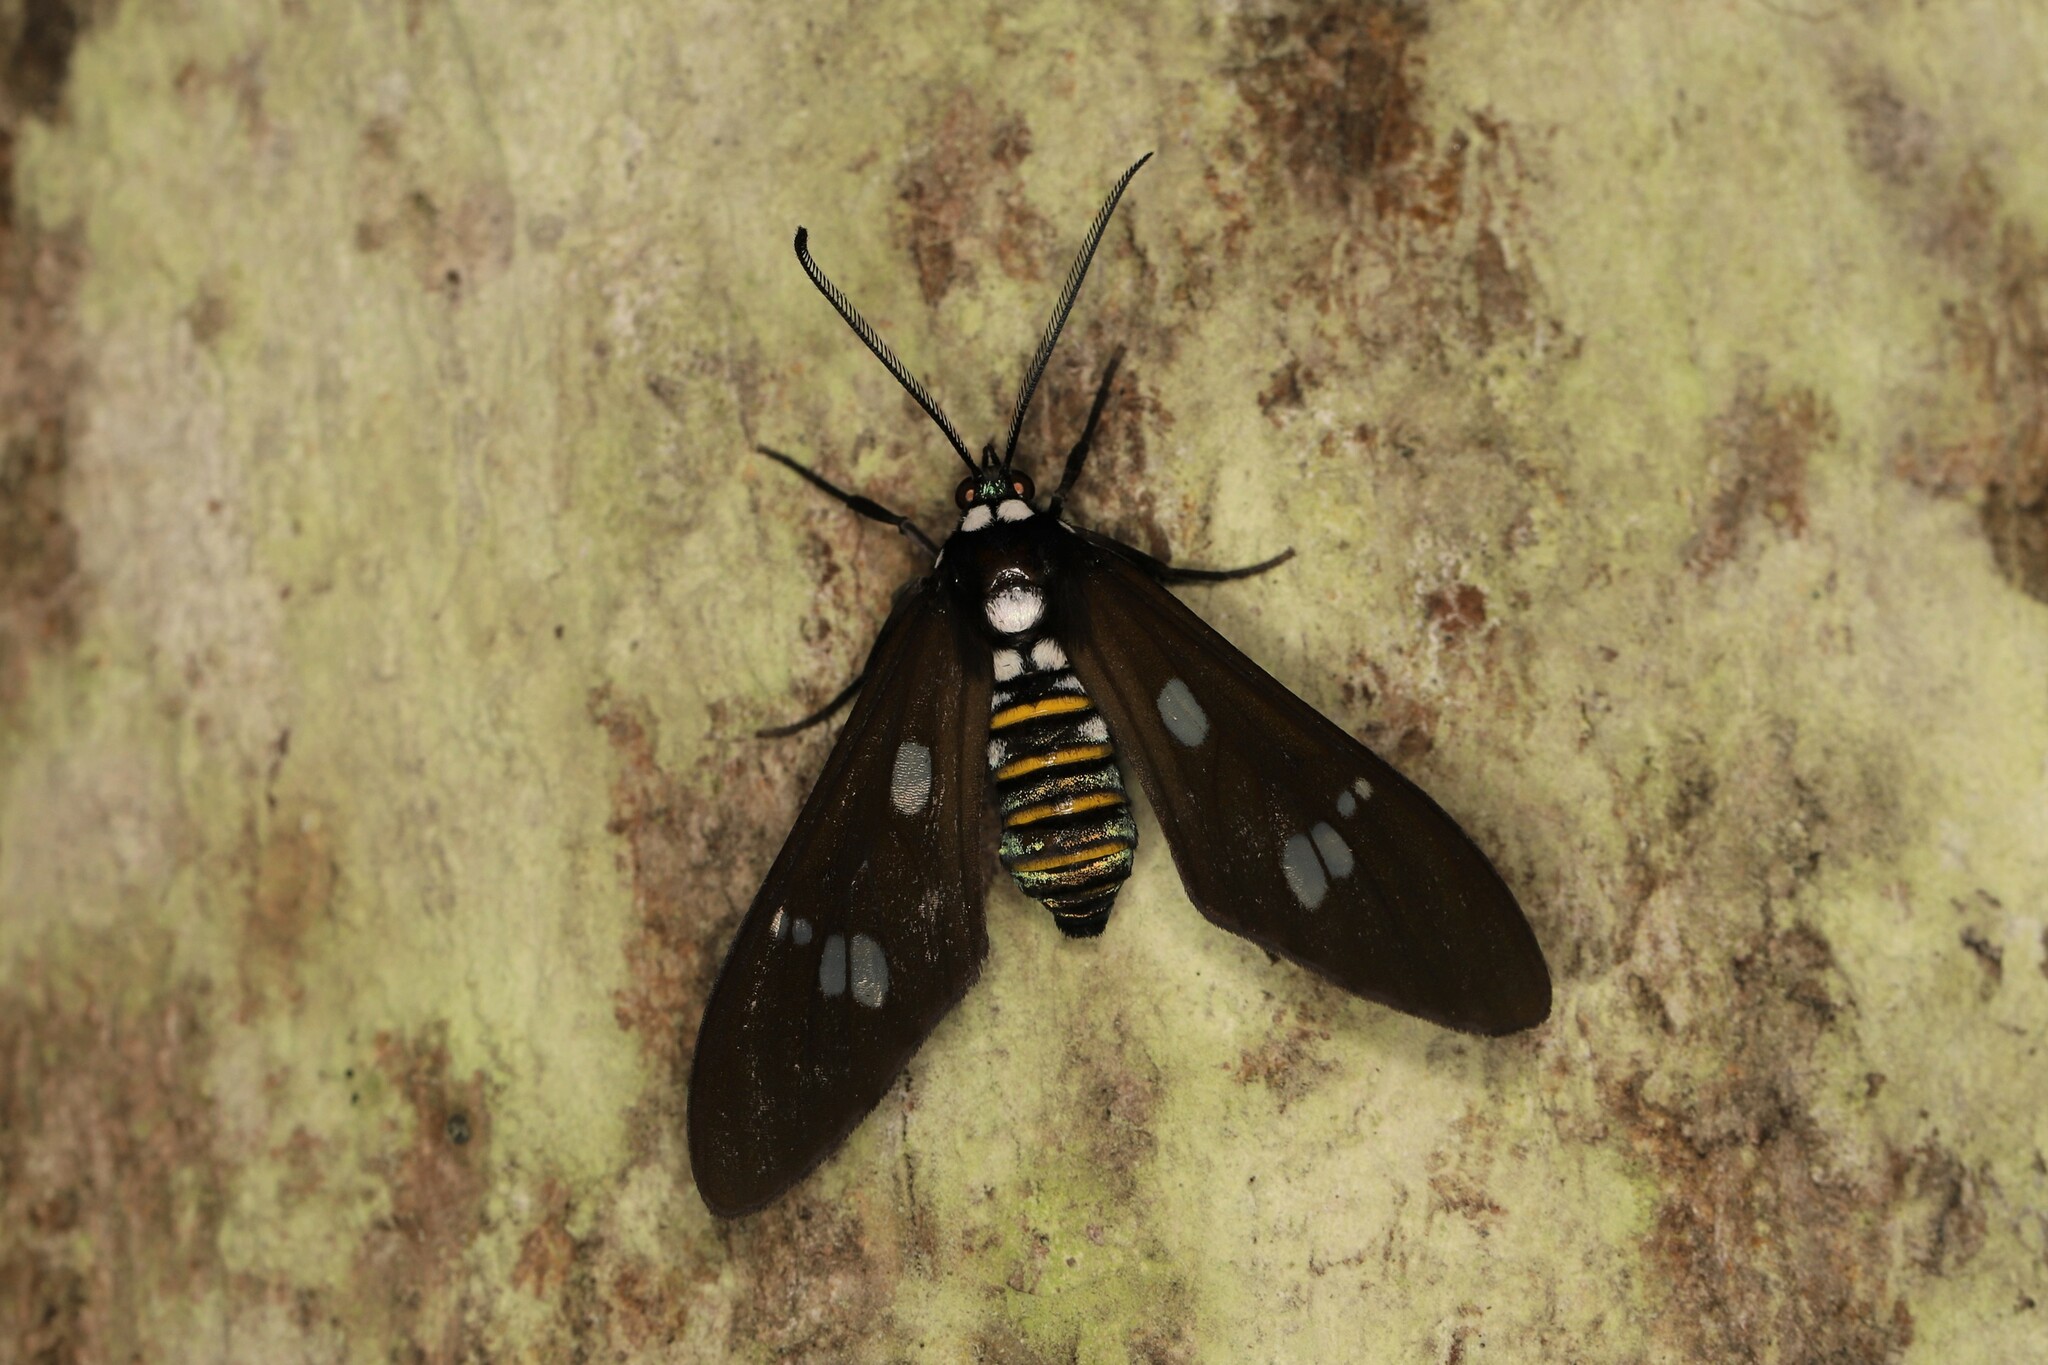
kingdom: Animalia
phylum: Arthropoda
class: Insecta
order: Lepidoptera
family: Erebidae
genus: Phaio
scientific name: Phaio acquiguttata
